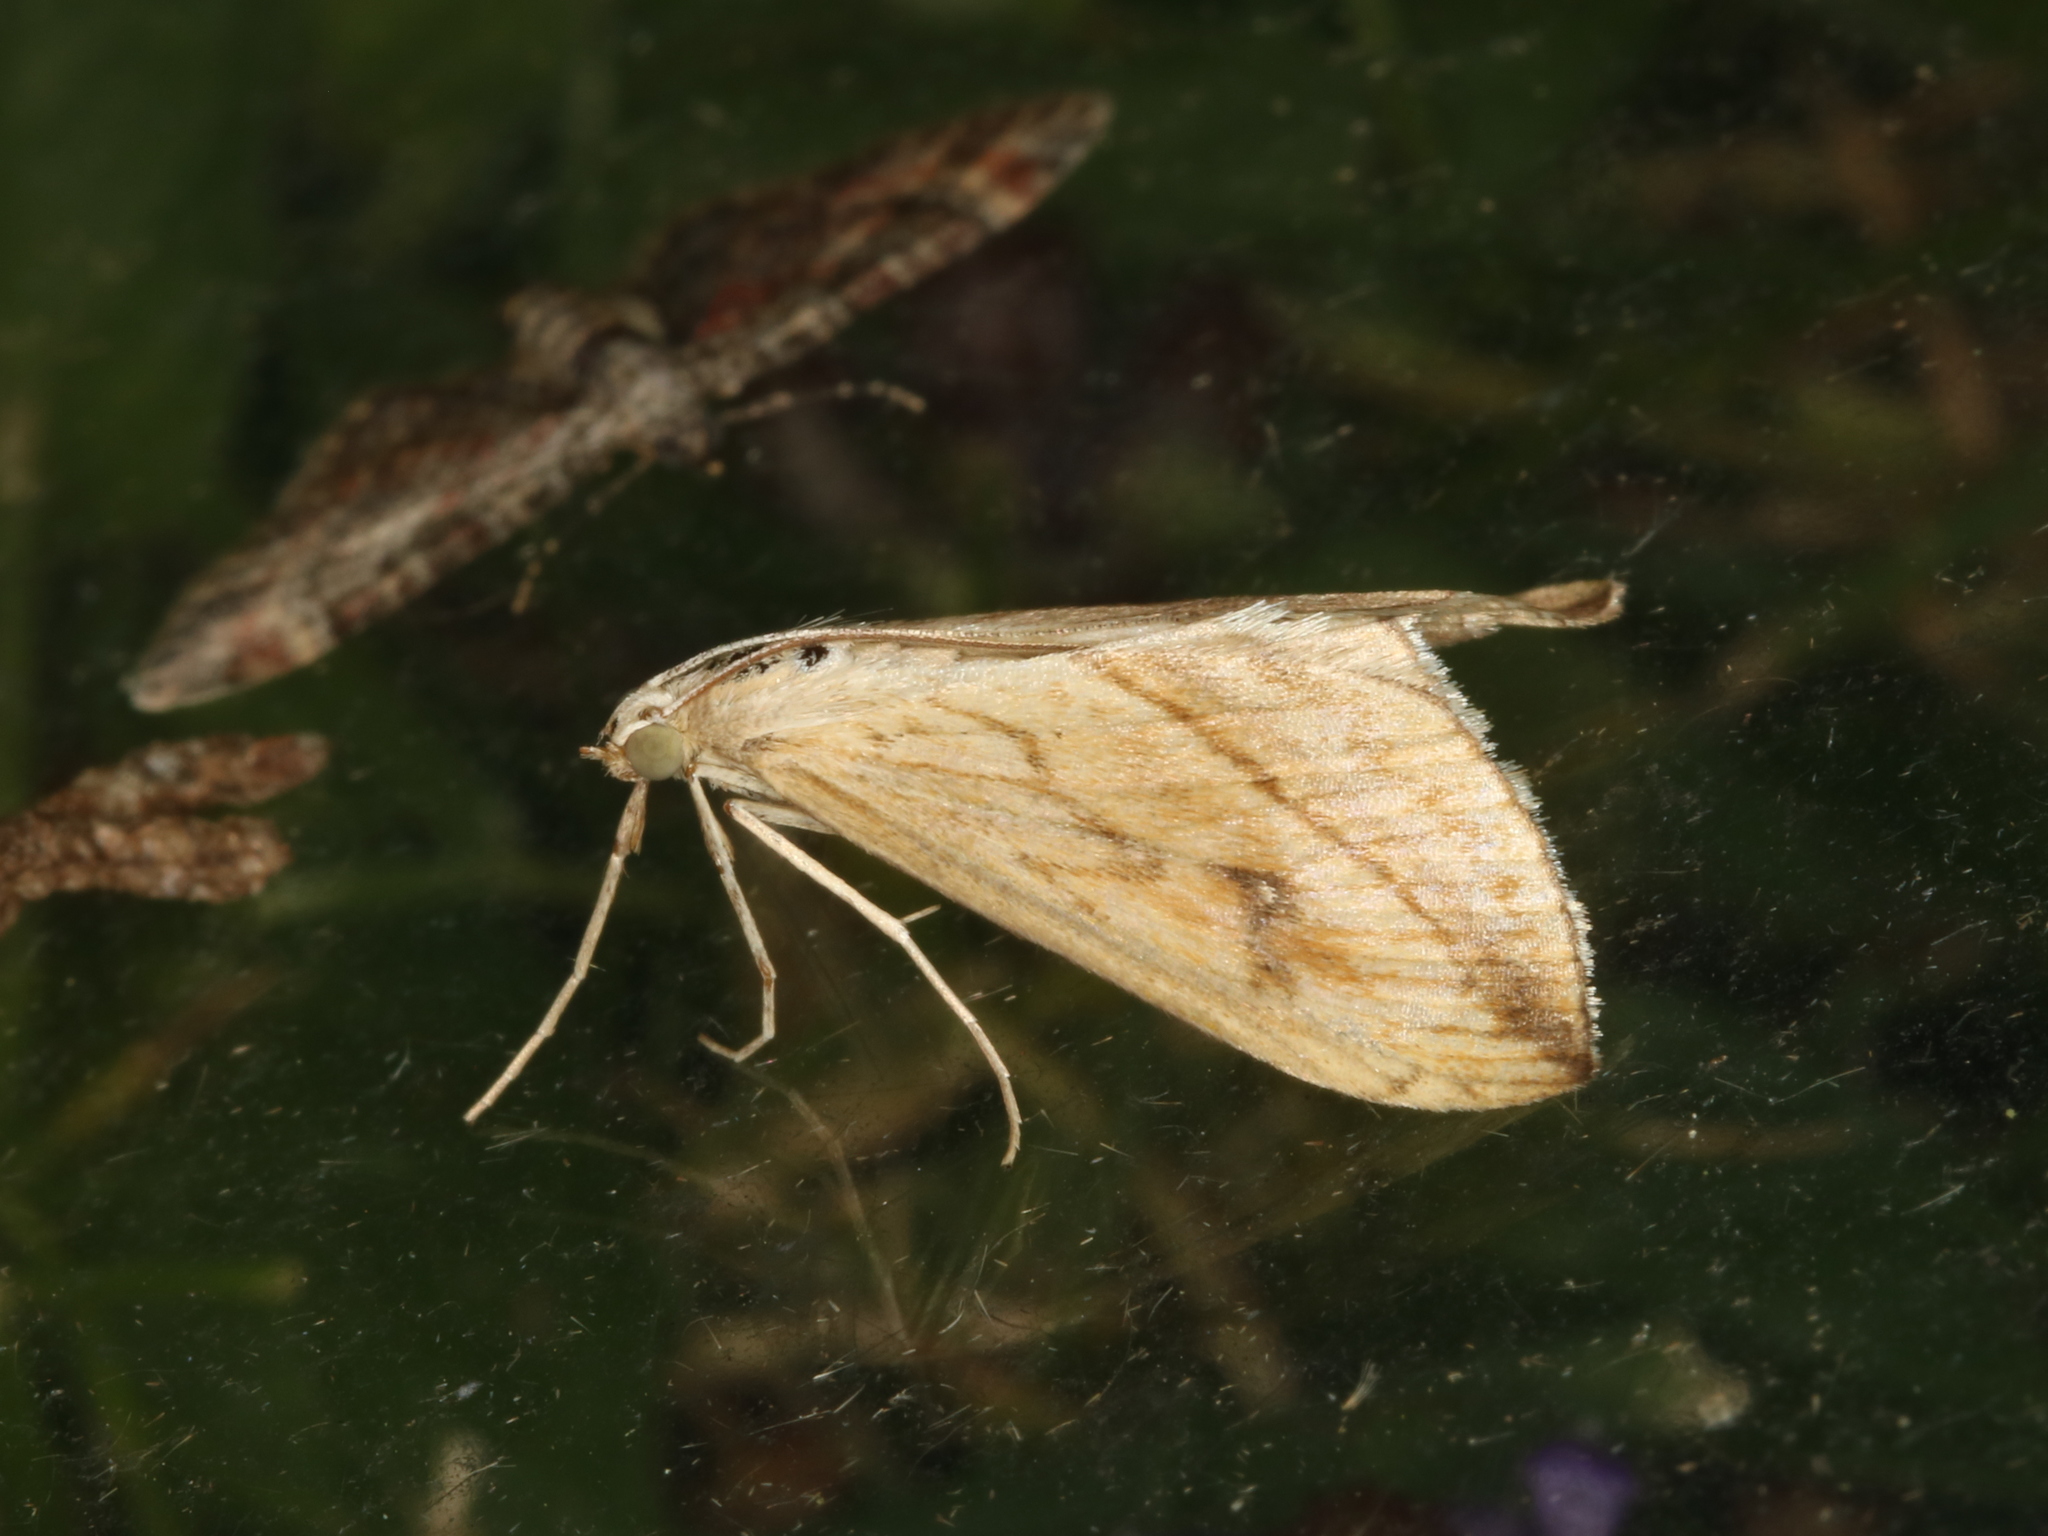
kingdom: Animalia
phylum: Arthropoda
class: Insecta
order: Lepidoptera
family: Crambidae
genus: Evergestis
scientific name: Evergestis forficalis
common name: Garden pebble
